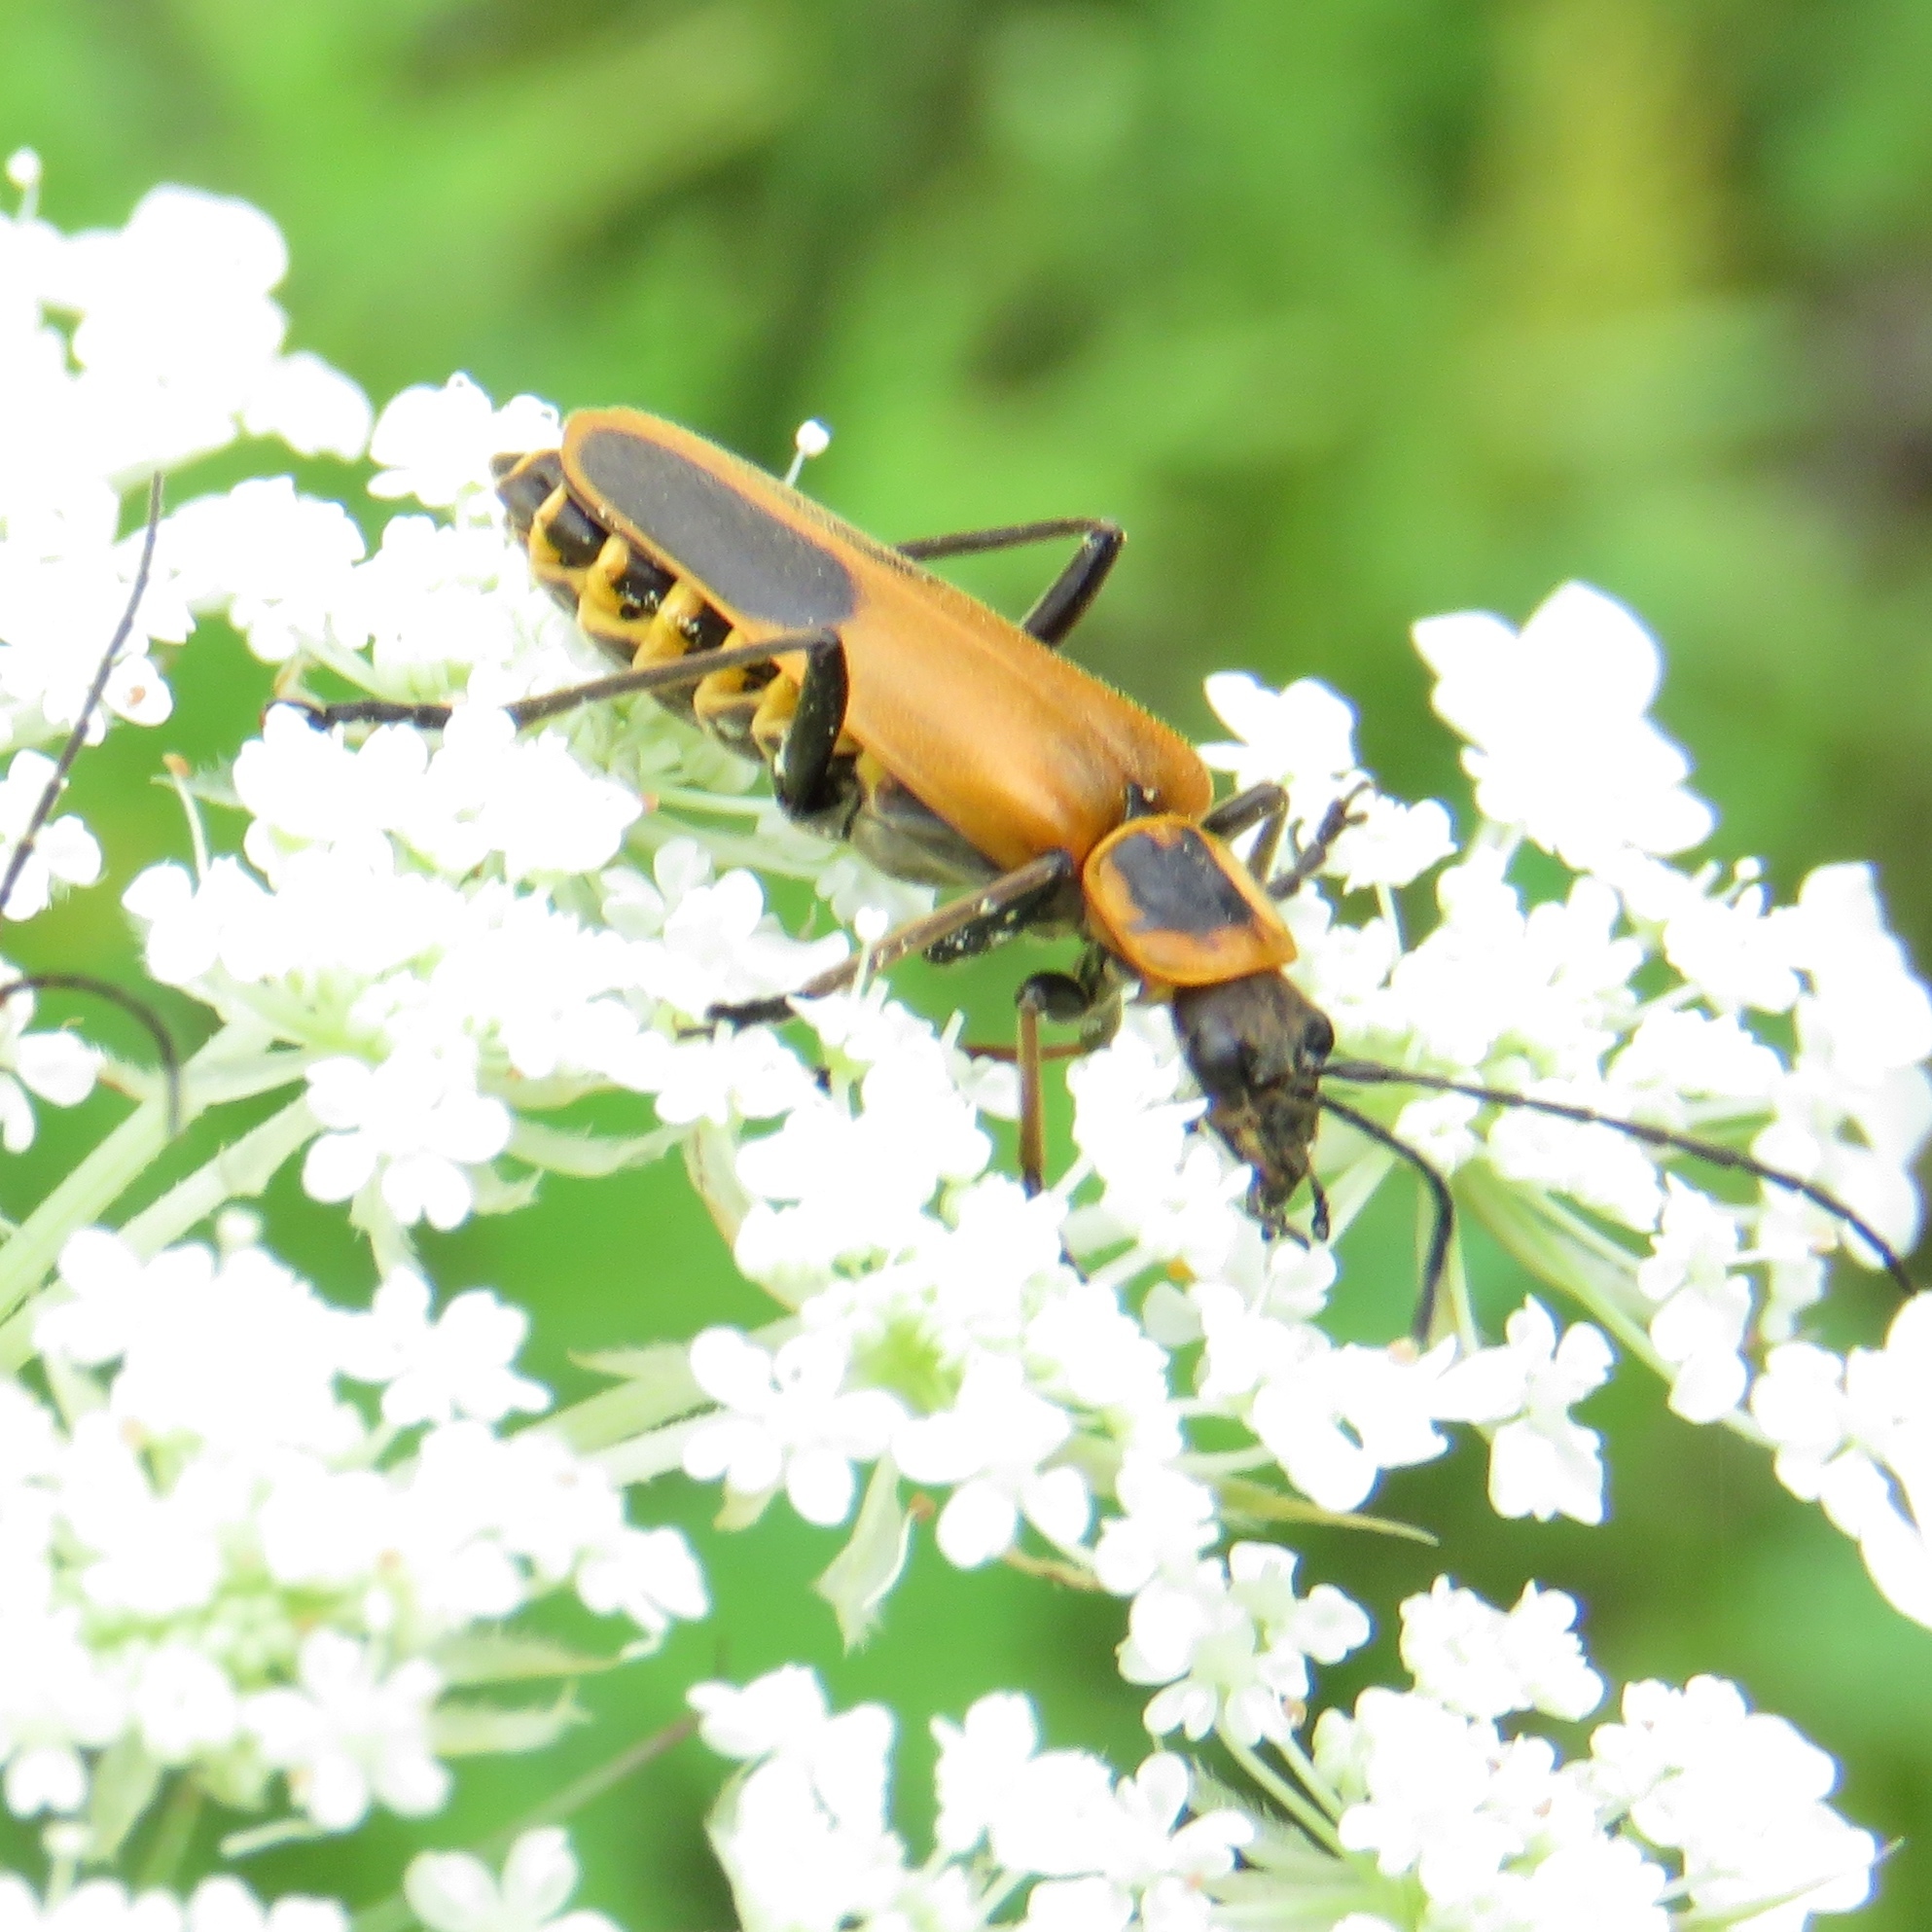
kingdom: Animalia
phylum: Arthropoda
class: Insecta
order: Coleoptera
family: Cantharidae
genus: Chauliognathus
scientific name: Chauliognathus pensylvanicus
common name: Goldenrod soldier beetle
